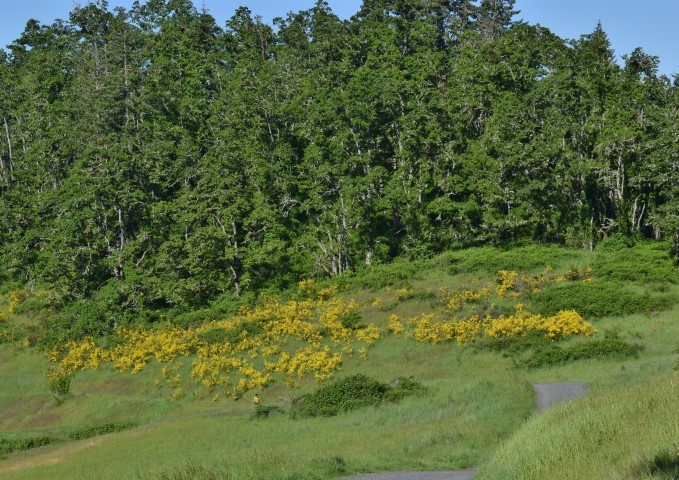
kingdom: Plantae
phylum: Tracheophyta
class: Magnoliopsida
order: Fabales
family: Fabaceae
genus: Cytisus
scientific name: Cytisus scoparius
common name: Scotch broom
